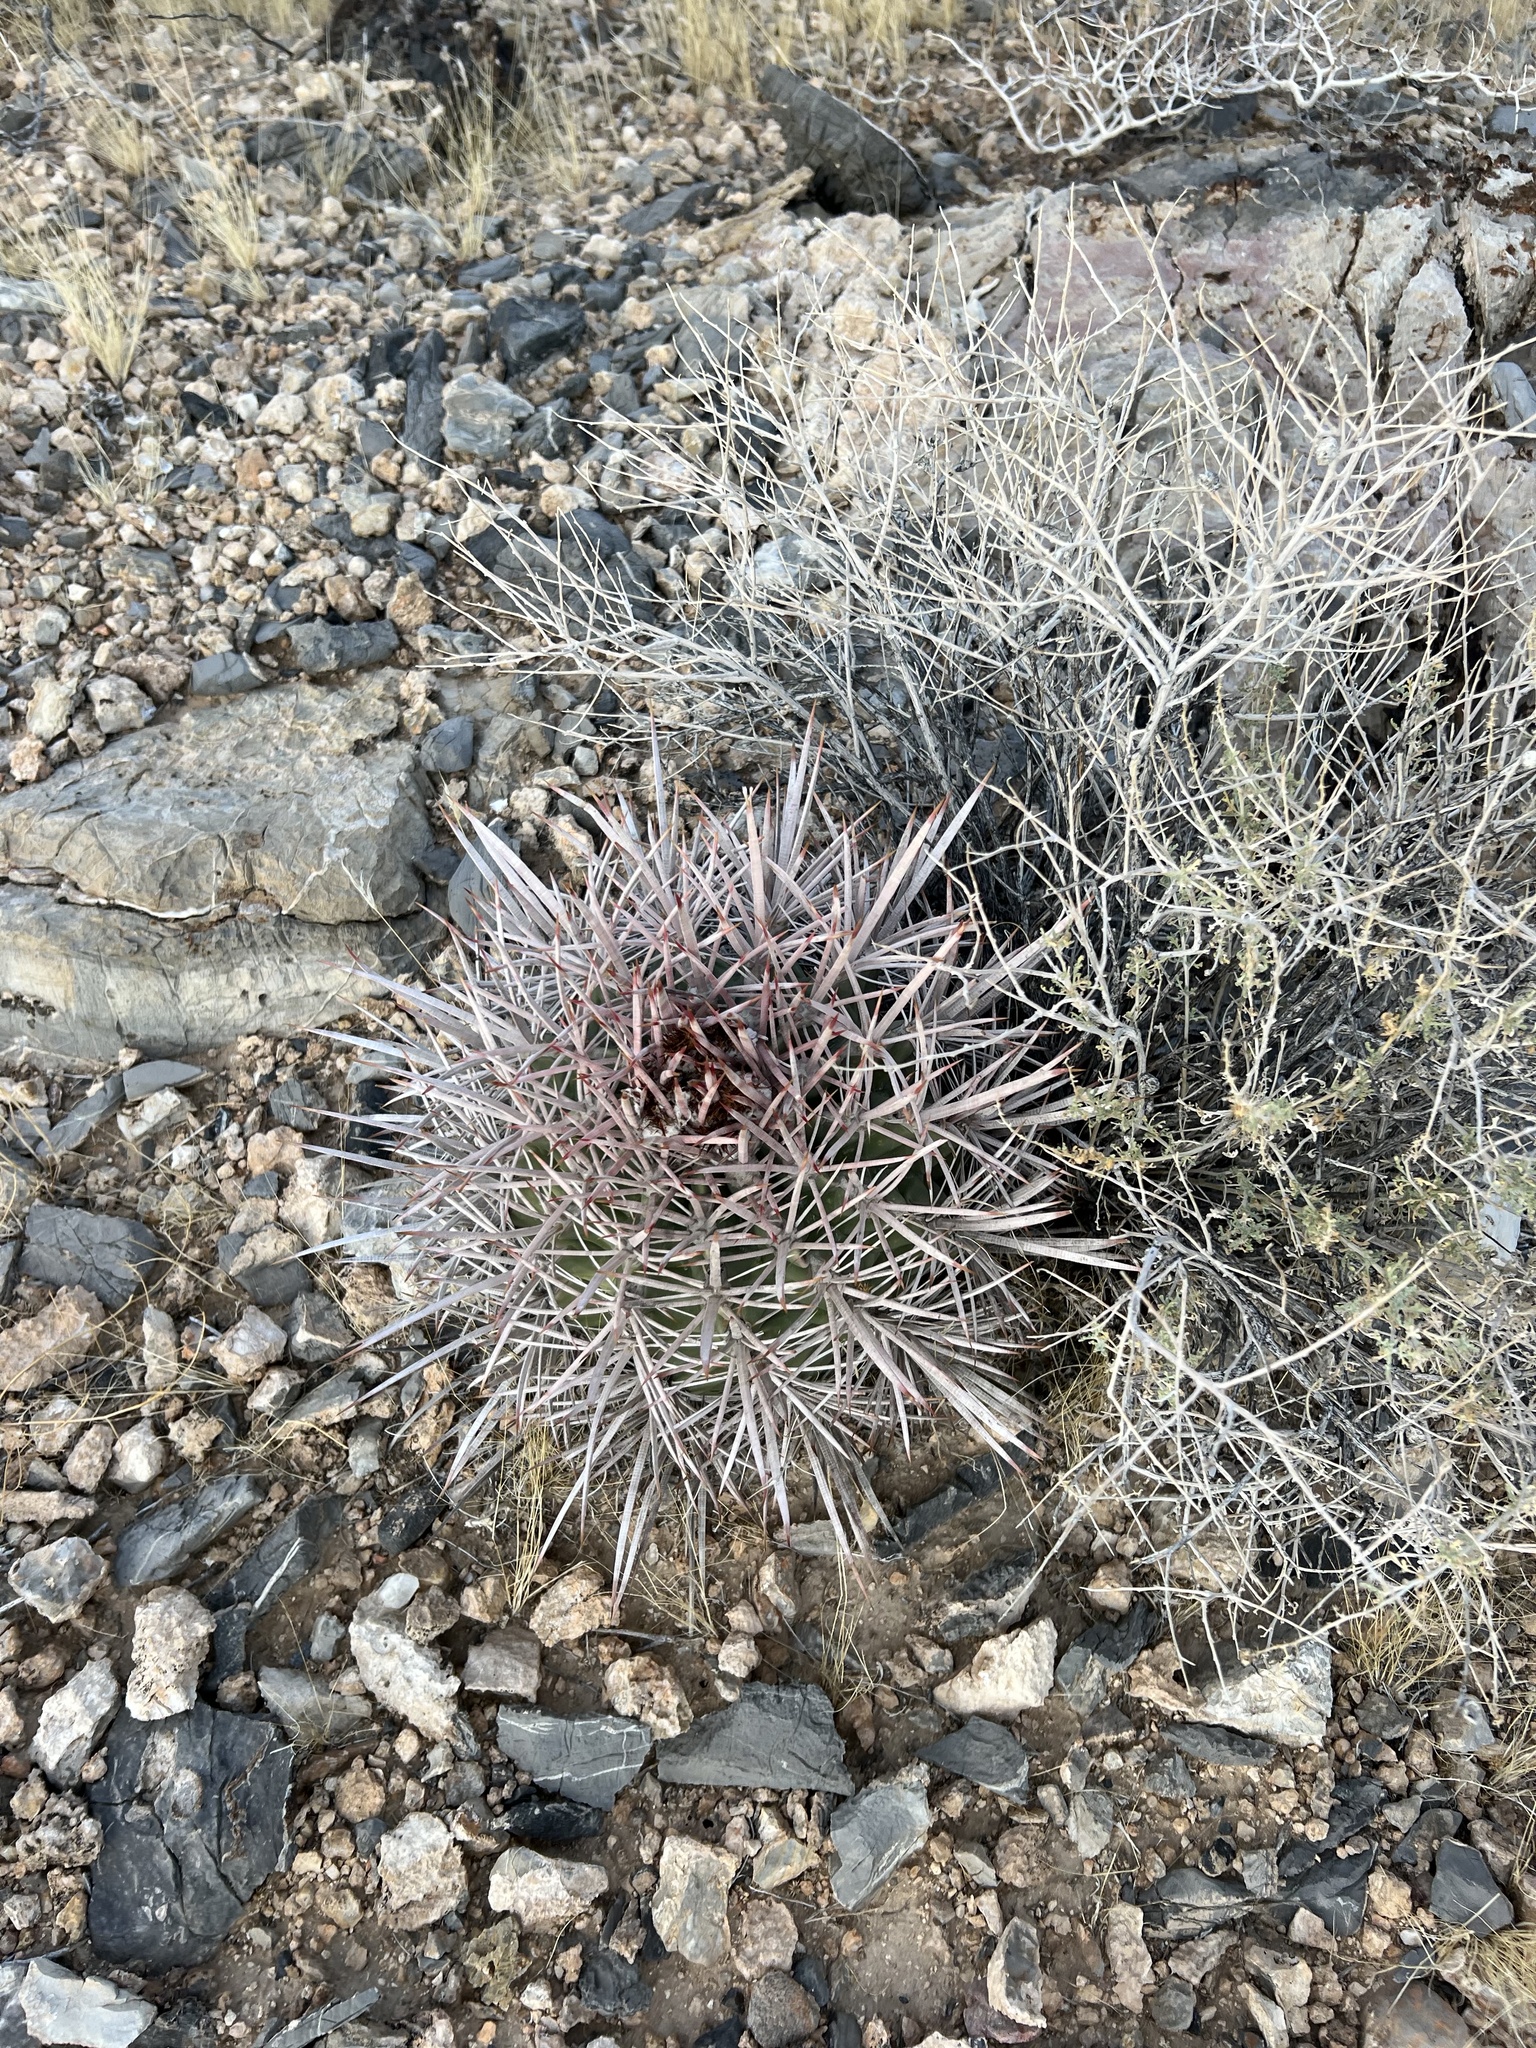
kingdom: Plantae
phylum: Tracheophyta
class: Magnoliopsida
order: Caryophyllales
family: Cactaceae
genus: Echinocactus
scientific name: Echinocactus polycephalus
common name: Cottontop cactus
